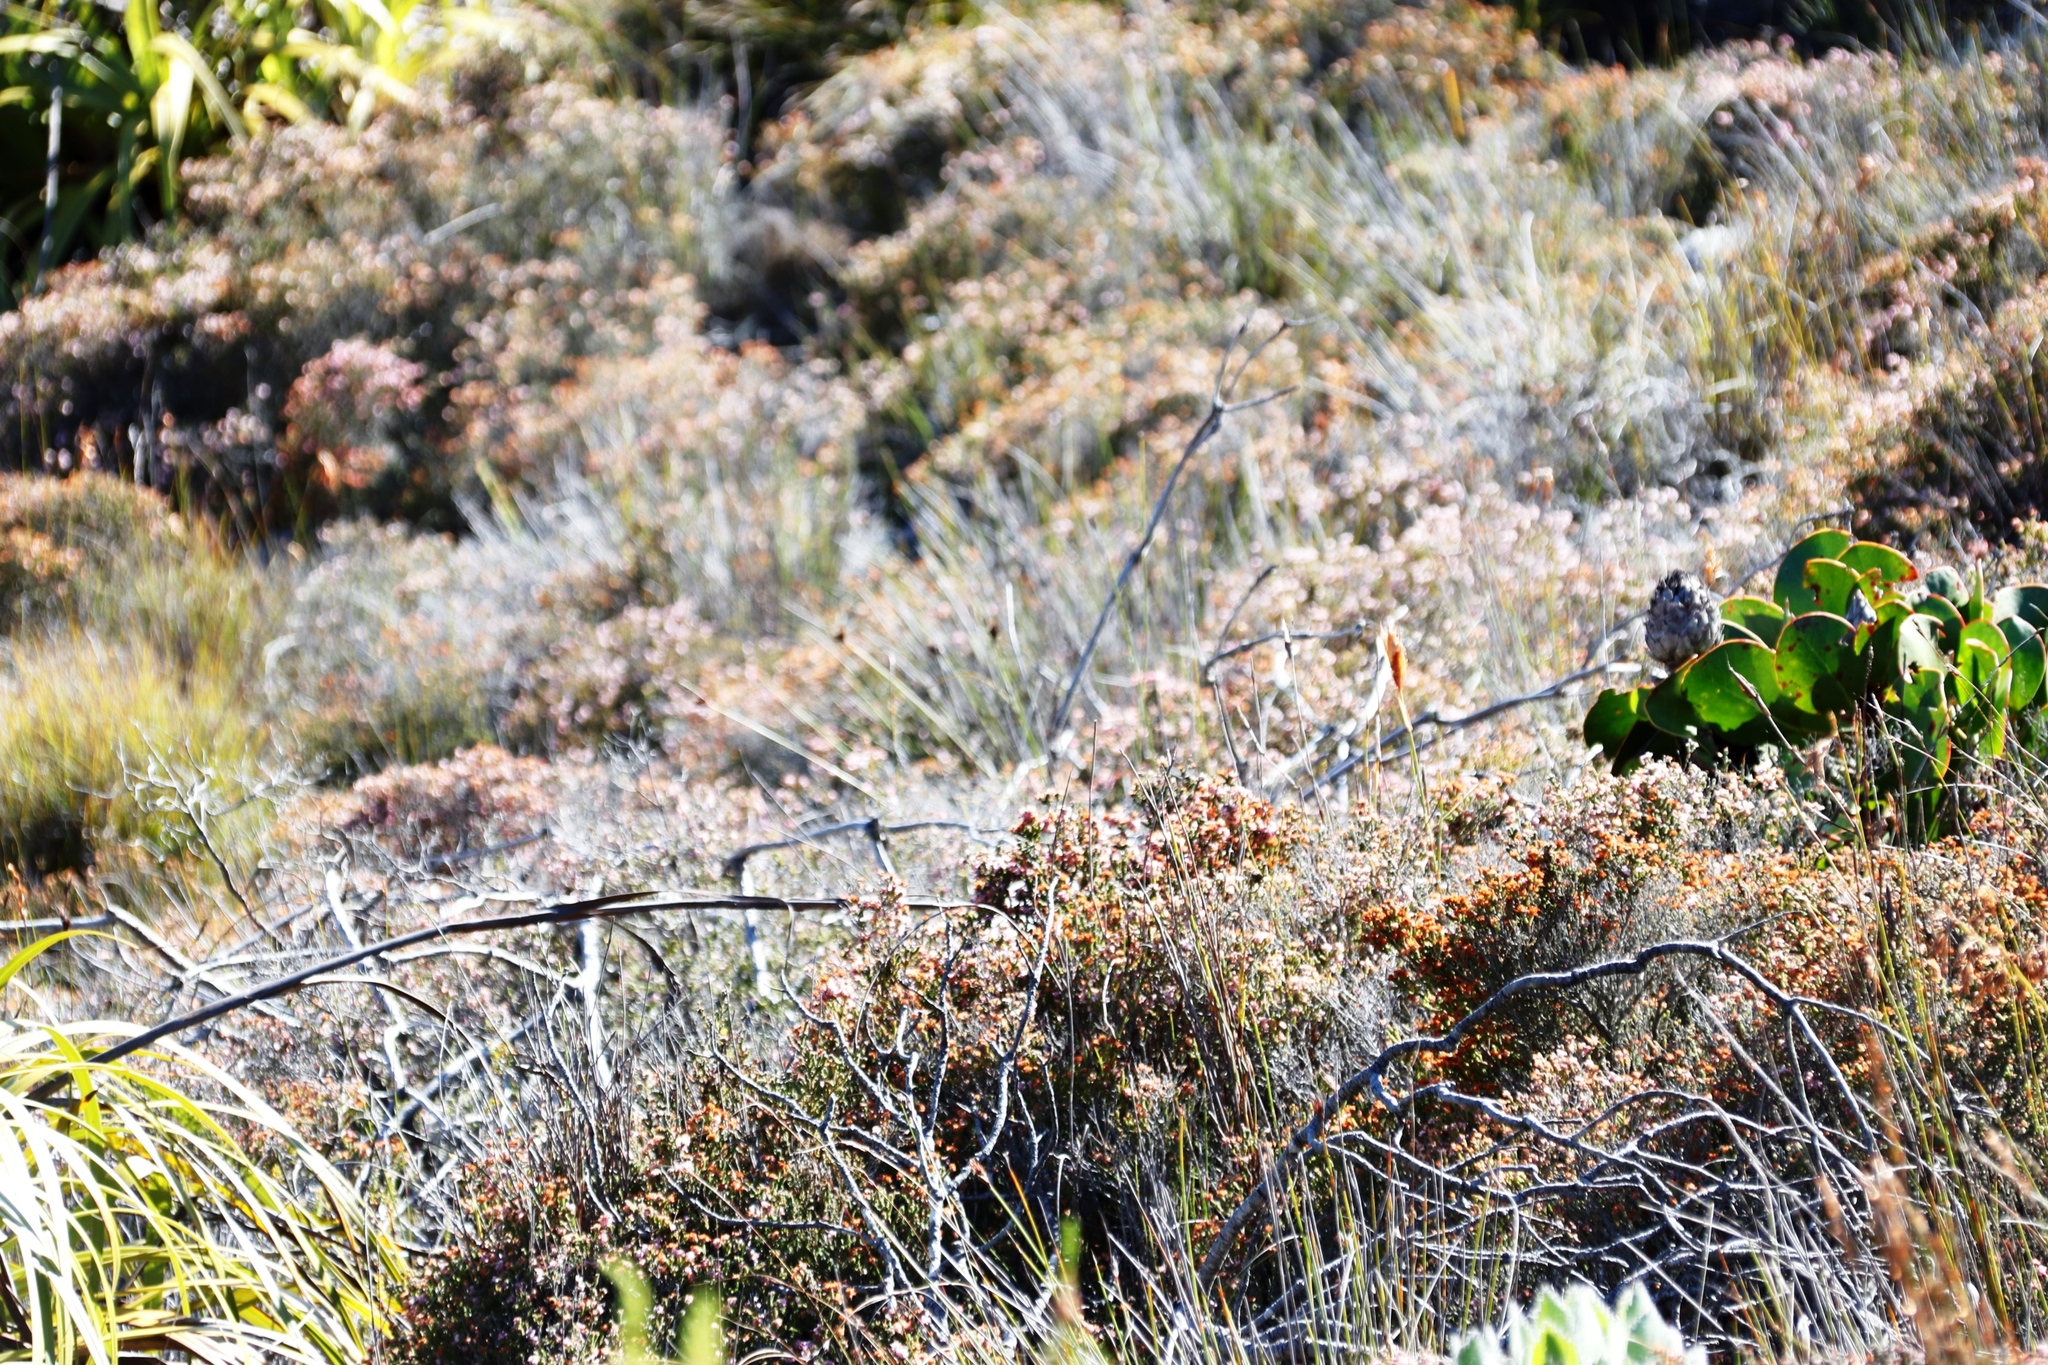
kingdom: Plantae
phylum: Tracheophyta
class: Magnoliopsida
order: Ericales
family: Ericaceae
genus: Erica
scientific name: Erica ericoides
